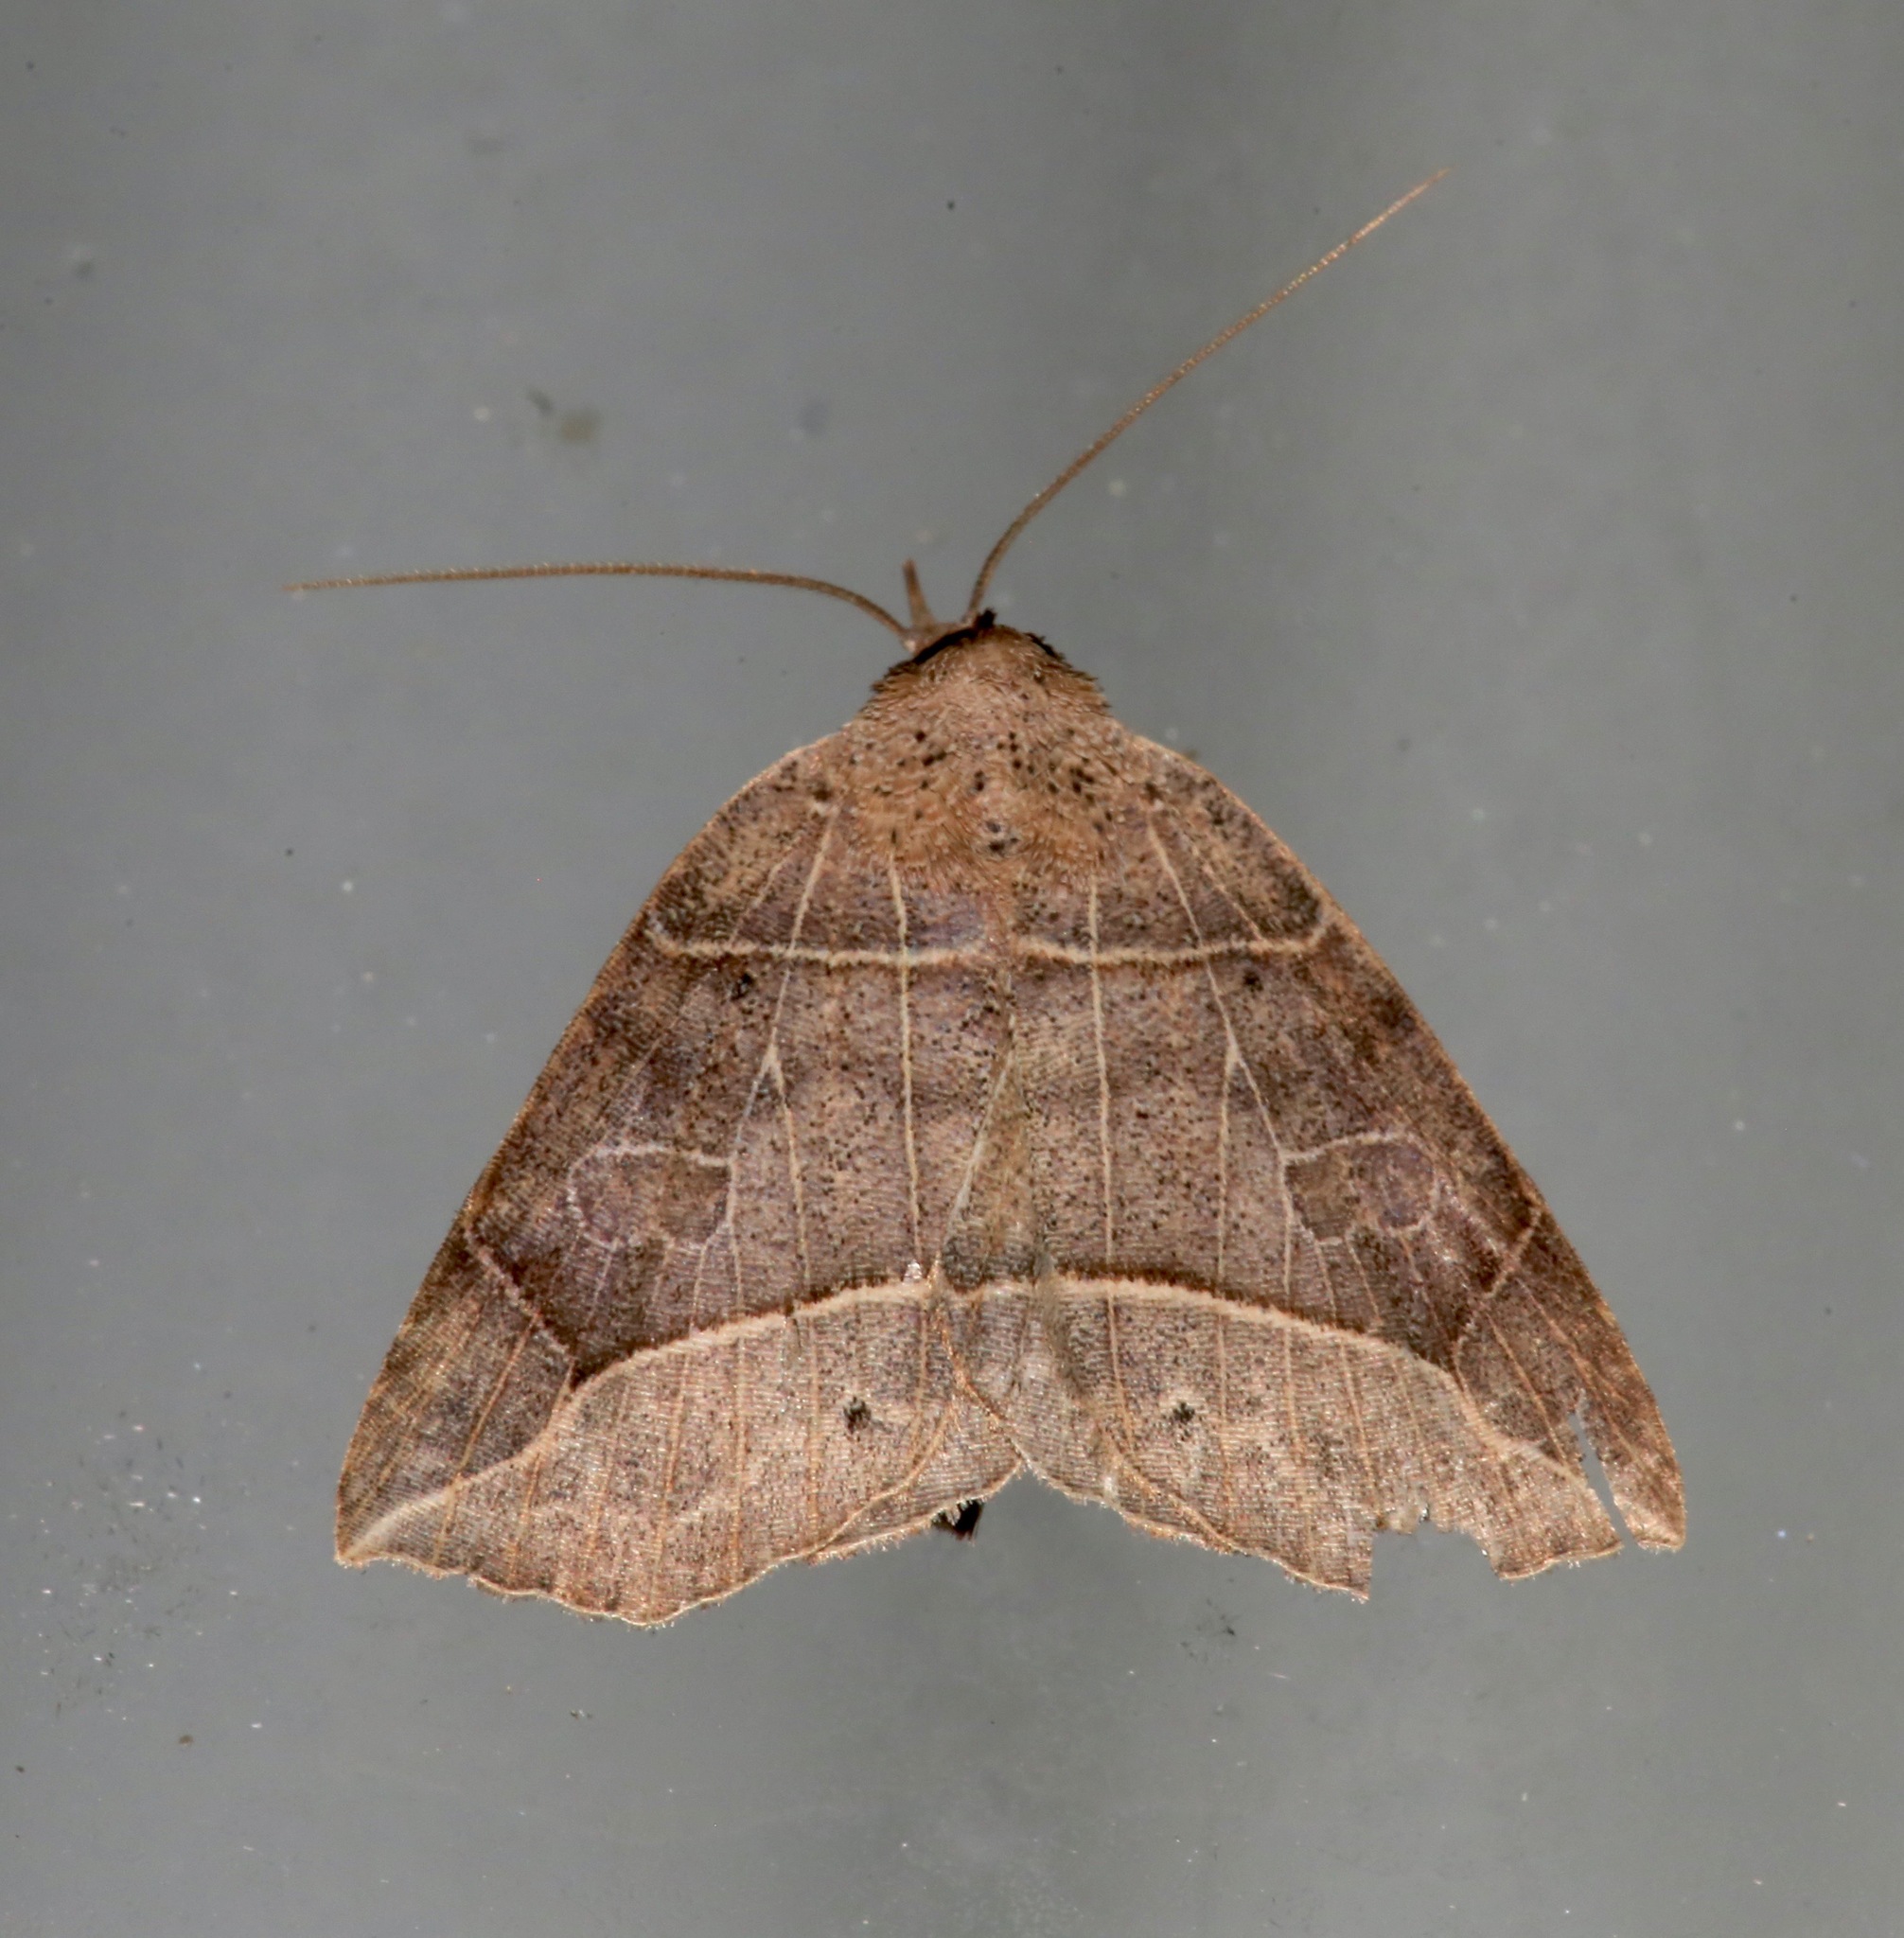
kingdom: Animalia
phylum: Arthropoda
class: Insecta
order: Lepidoptera
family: Erebidae
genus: Isogona
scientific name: Isogona tenuis
